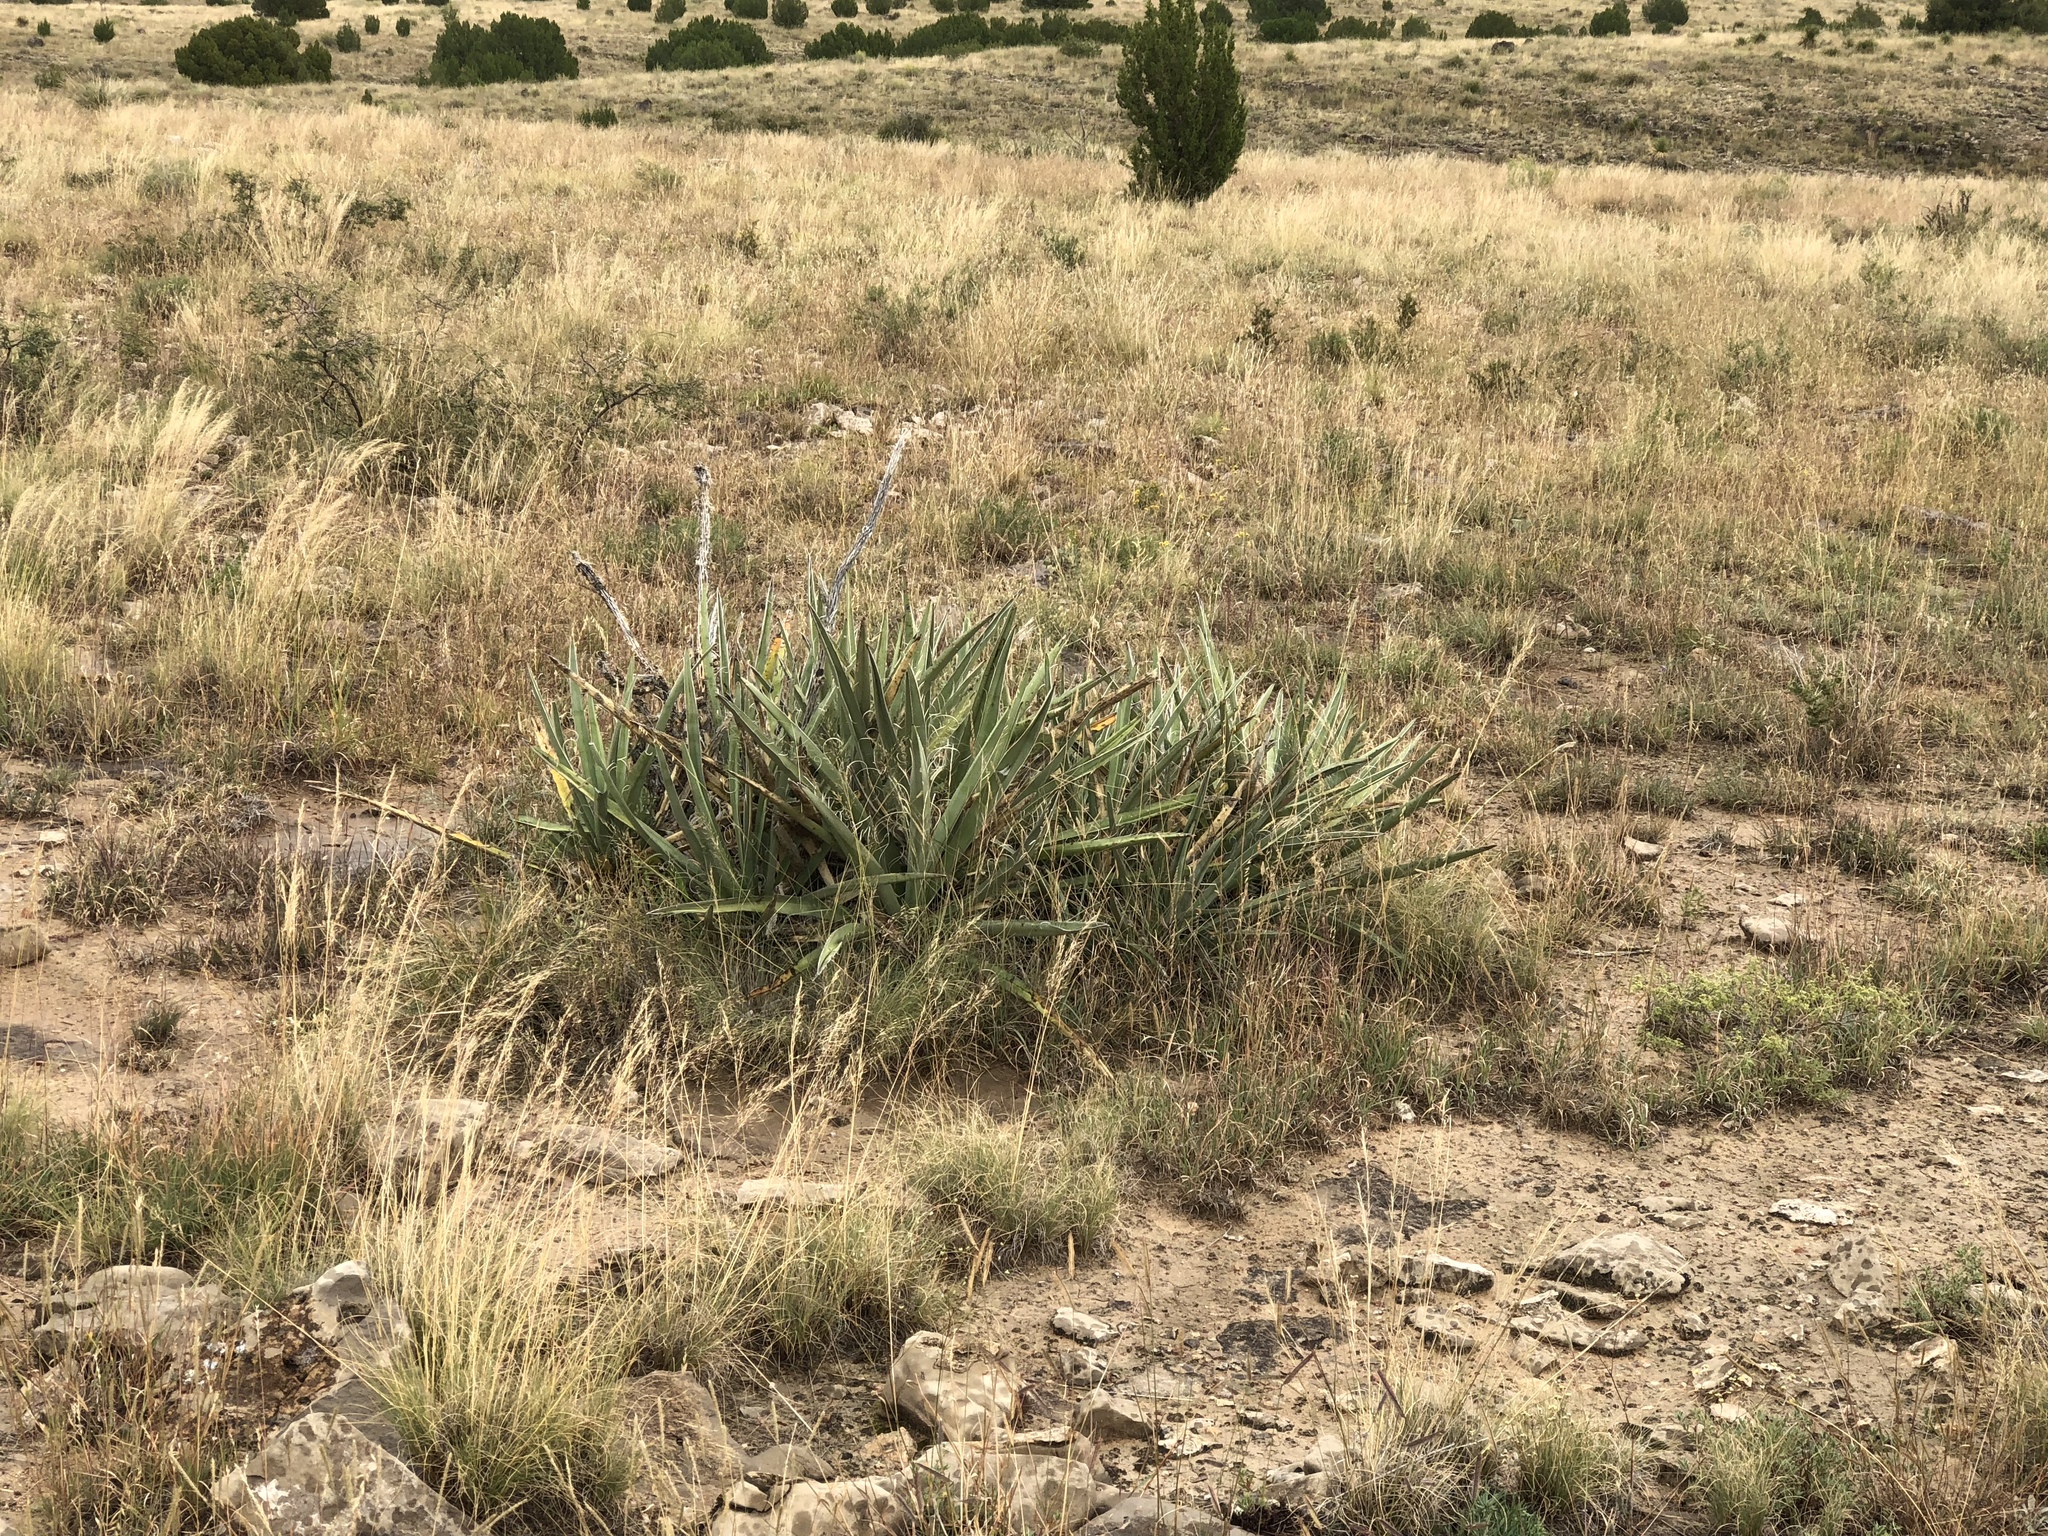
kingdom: Plantae
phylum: Tracheophyta
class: Liliopsida
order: Asparagales
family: Asparagaceae
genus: Yucca
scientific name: Yucca baccata
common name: Banana yucca
